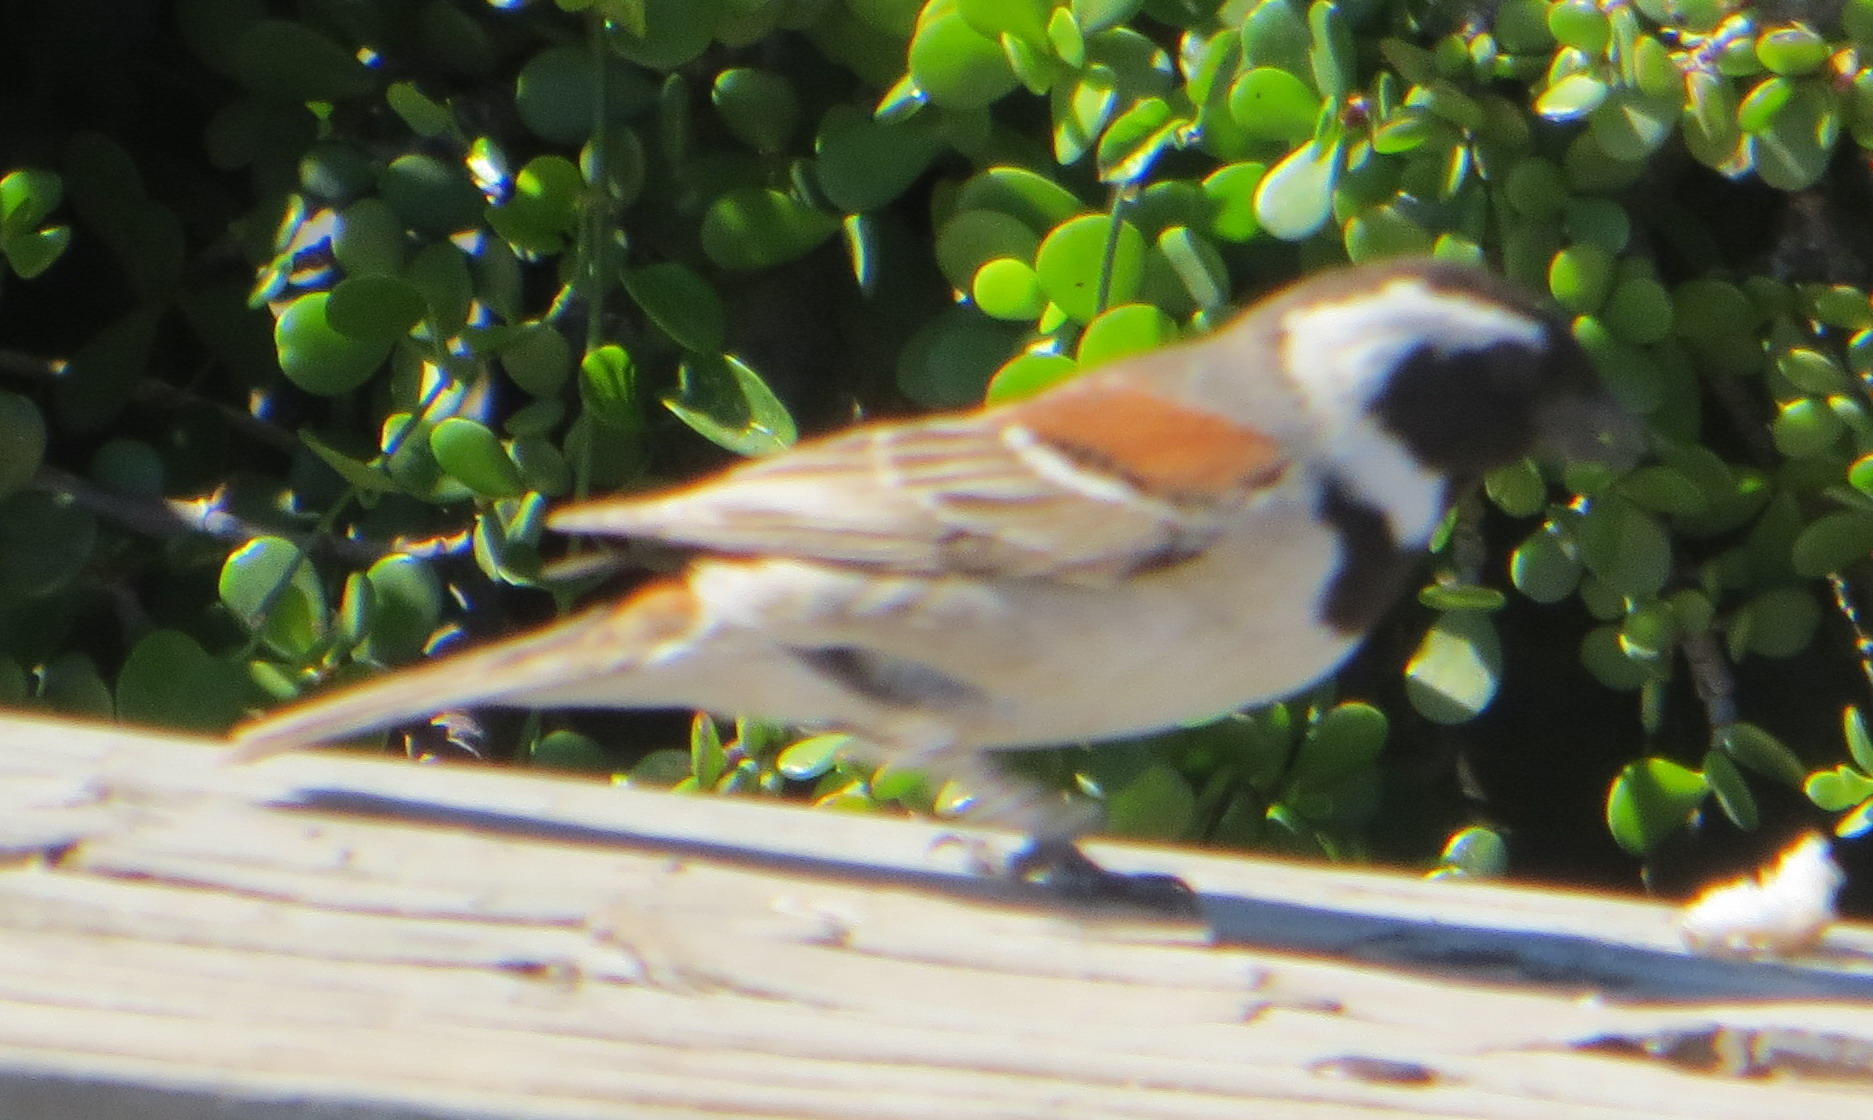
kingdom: Animalia
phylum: Chordata
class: Aves
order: Passeriformes
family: Passeridae
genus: Passer
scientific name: Passer melanurus
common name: Cape sparrow
